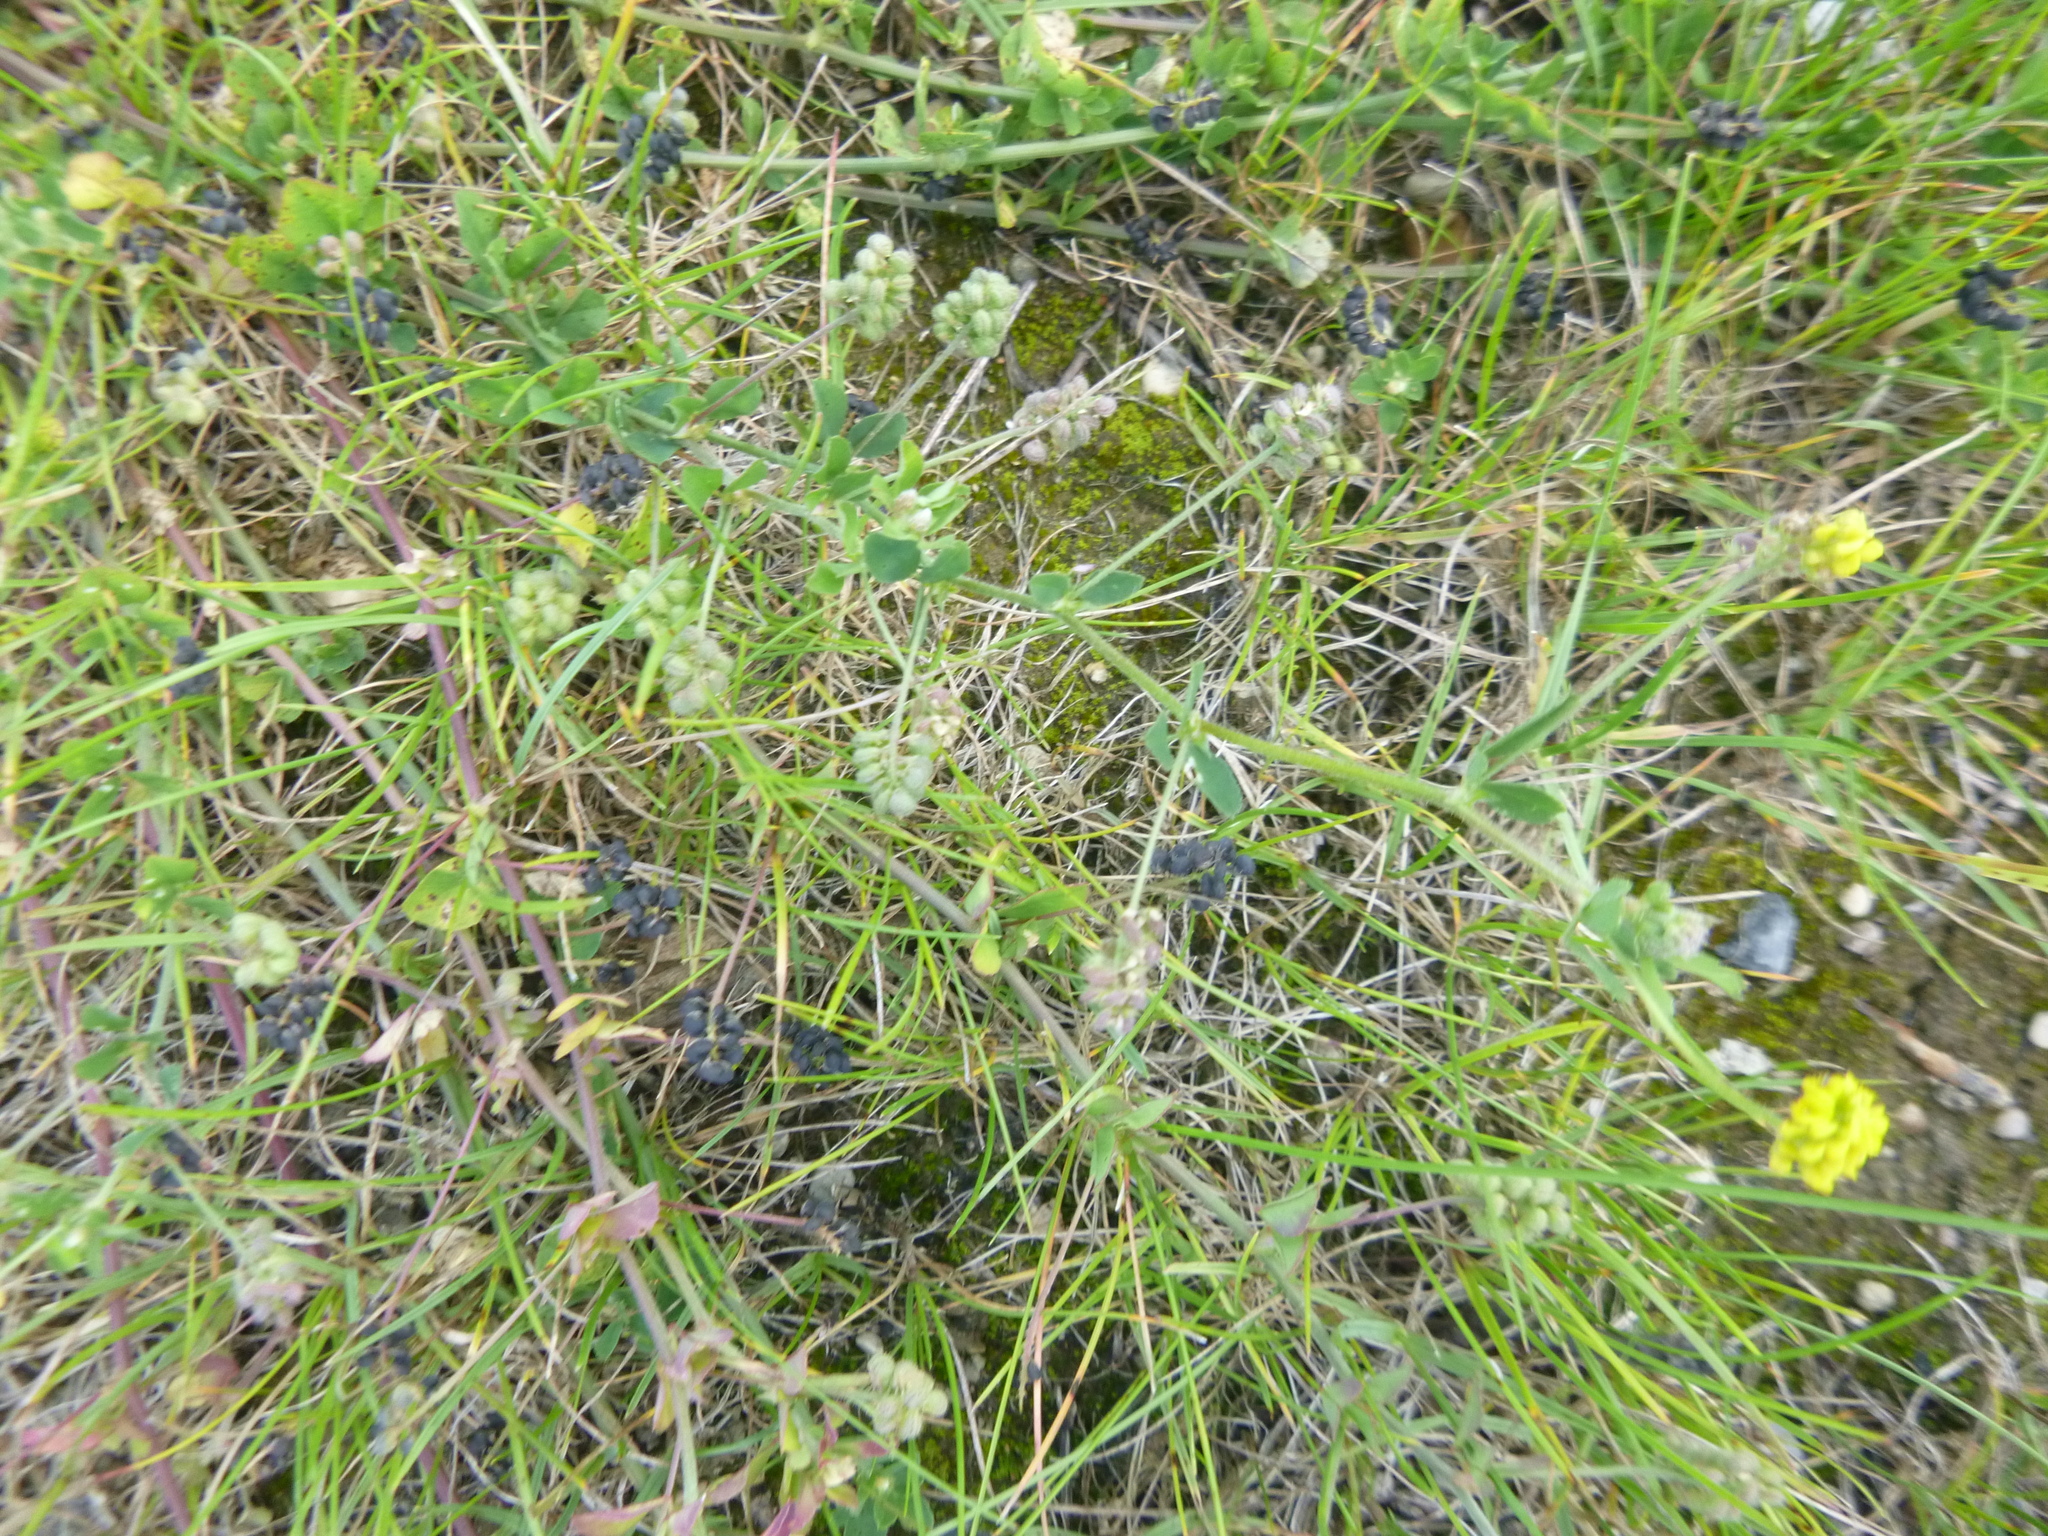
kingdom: Plantae
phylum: Tracheophyta
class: Magnoliopsida
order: Fabales
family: Fabaceae
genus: Medicago
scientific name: Medicago lupulina
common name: Black medick
